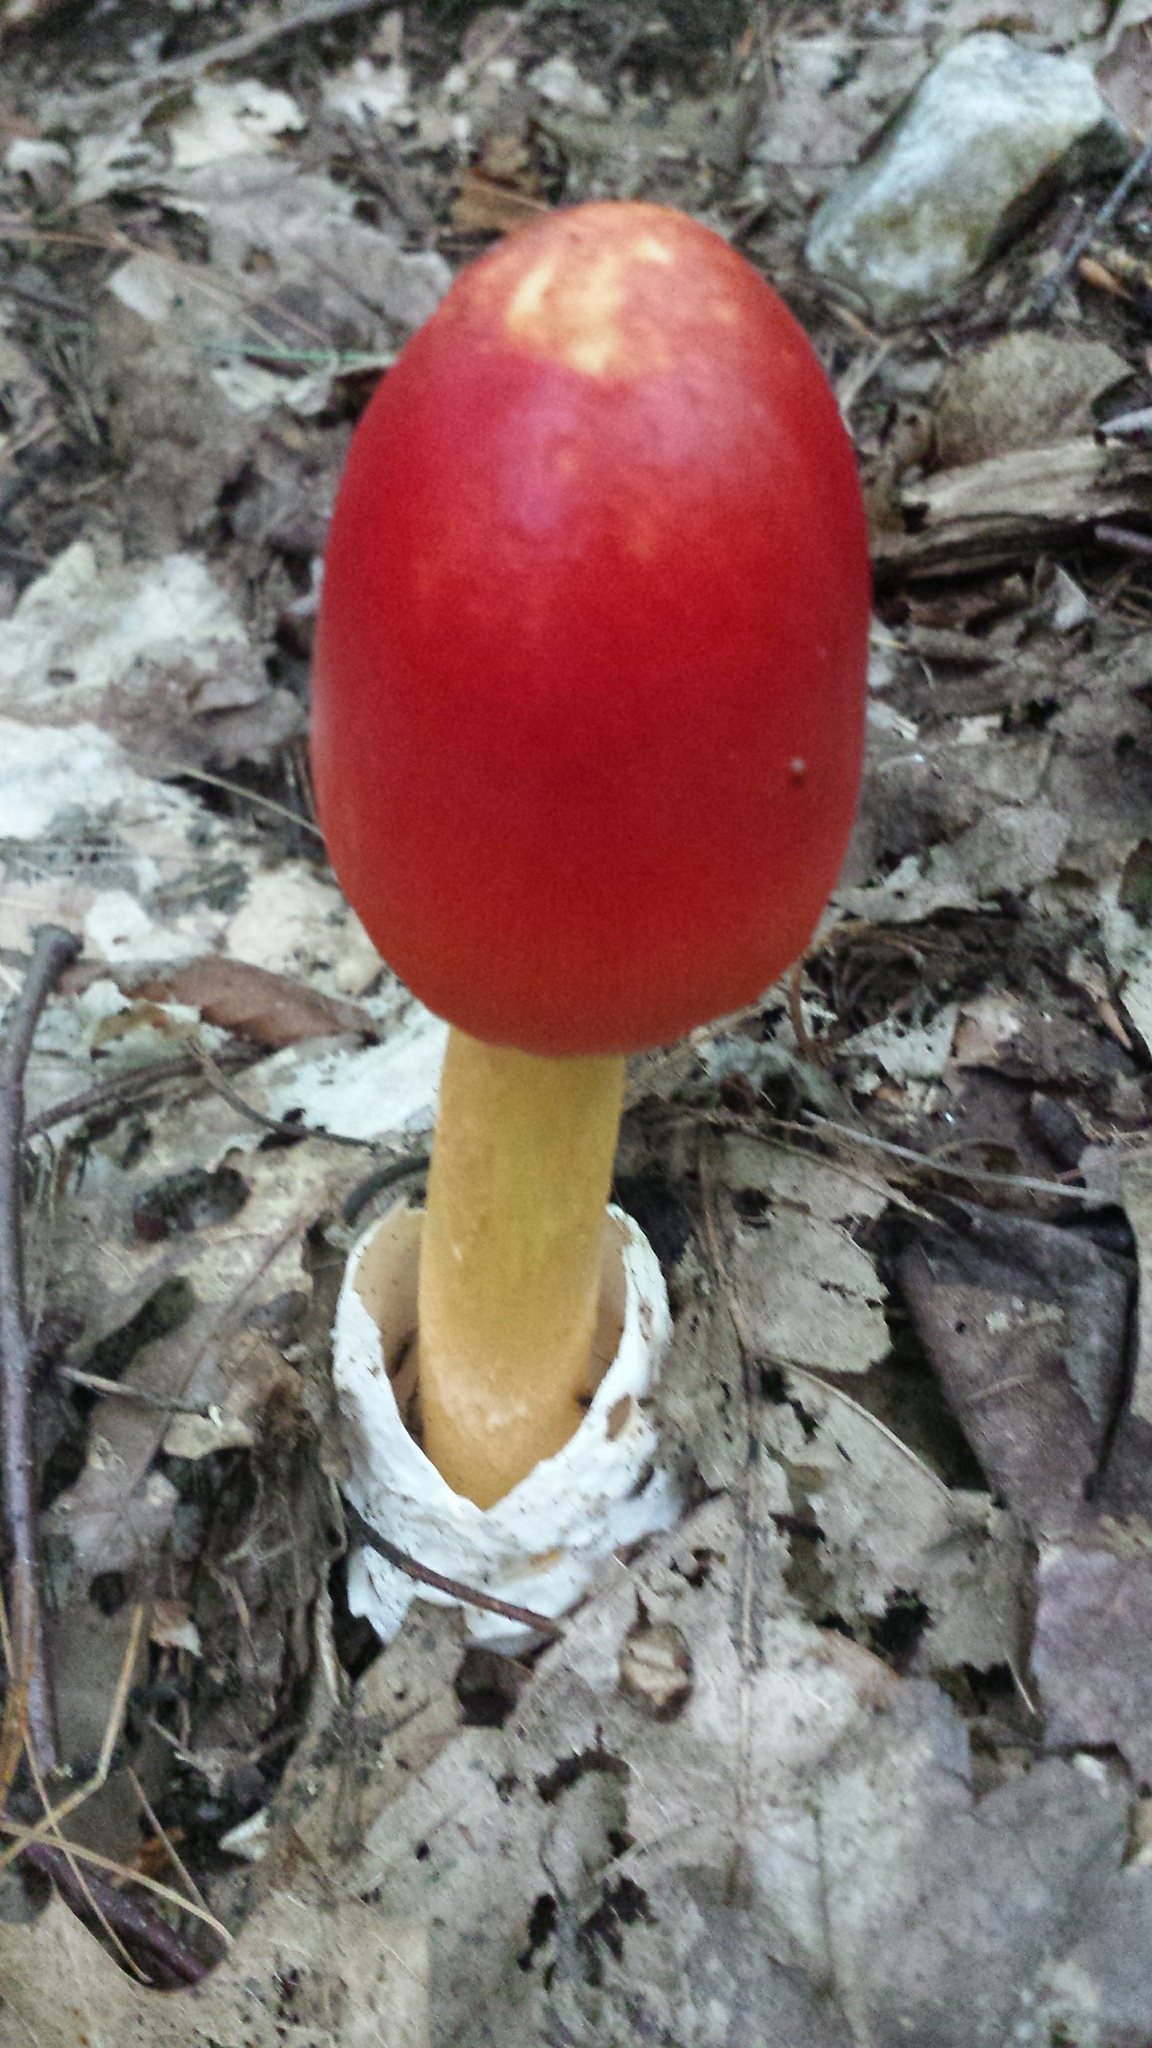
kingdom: Fungi
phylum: Basidiomycota
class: Agaricomycetes
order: Agaricales
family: Amanitaceae
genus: Amanita
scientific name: Amanita jacksonii
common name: Jackson's slender caesar
